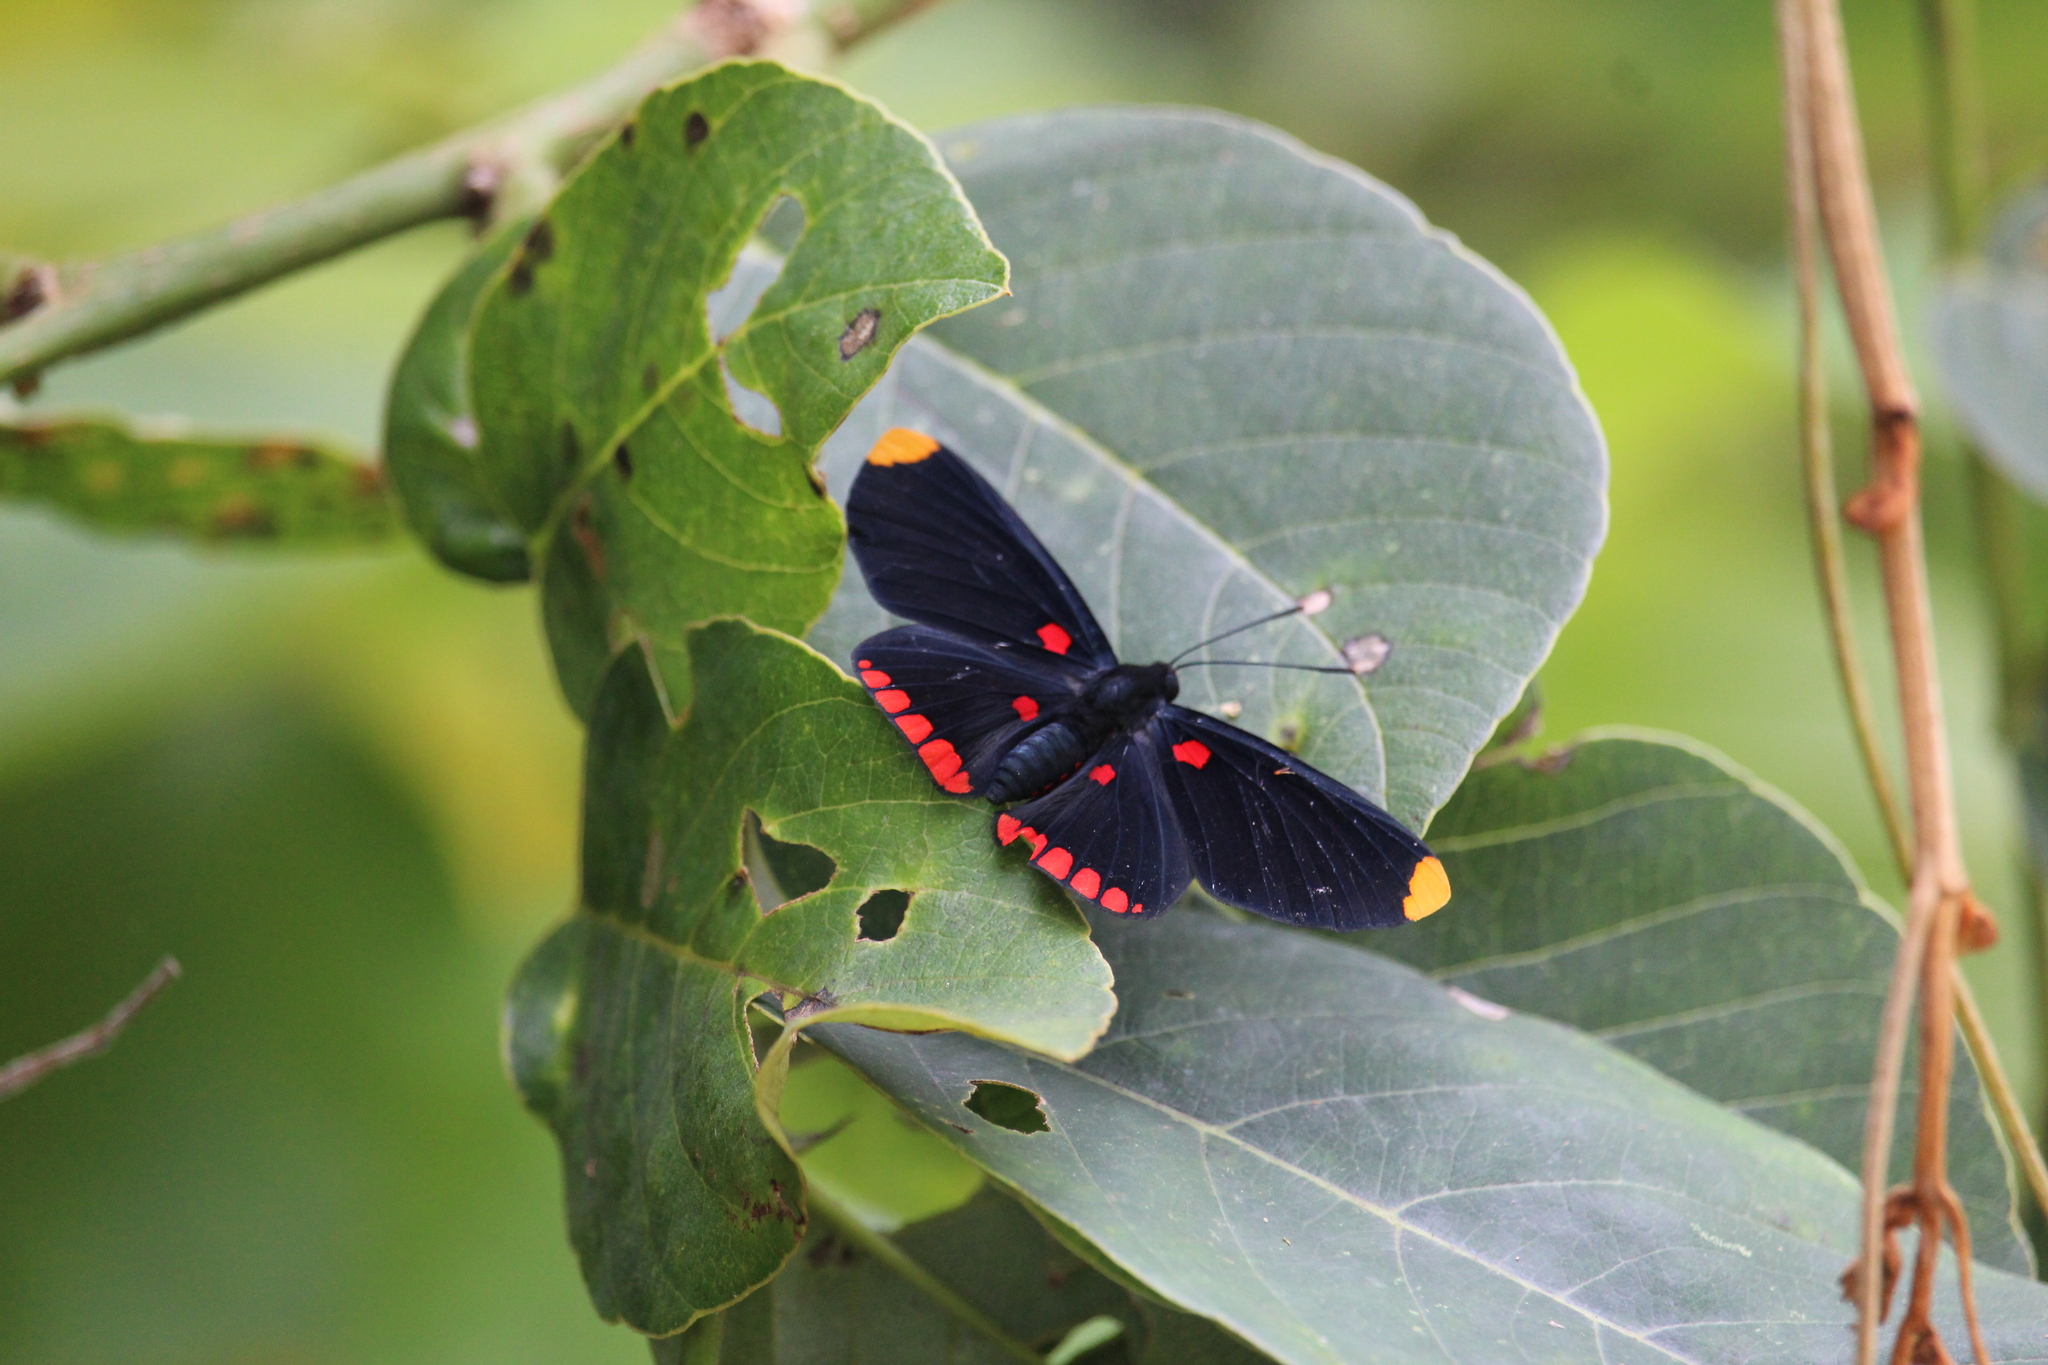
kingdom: Animalia
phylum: Arthropoda
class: Insecta
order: Lepidoptera
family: Lycaenidae
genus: Melanis
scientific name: Melanis pixe
